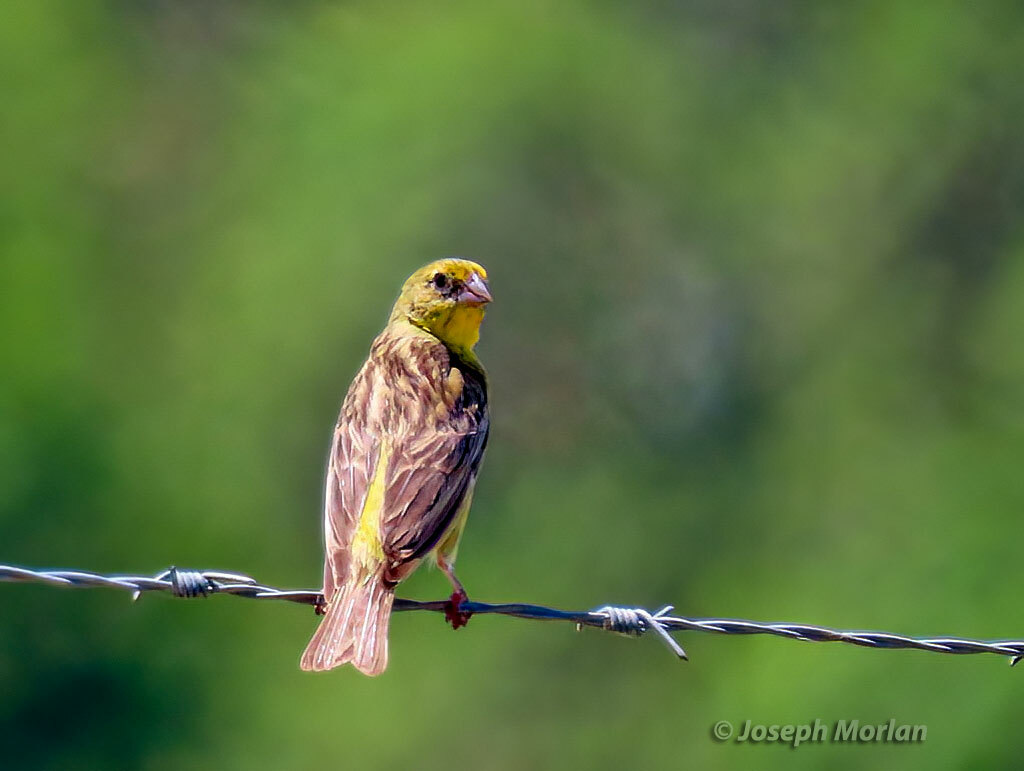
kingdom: Animalia
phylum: Chordata
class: Aves
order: Passeriformes
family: Thraupidae
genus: Sicalis
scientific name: Sicalis luteola
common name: Grassland yellow-finch
